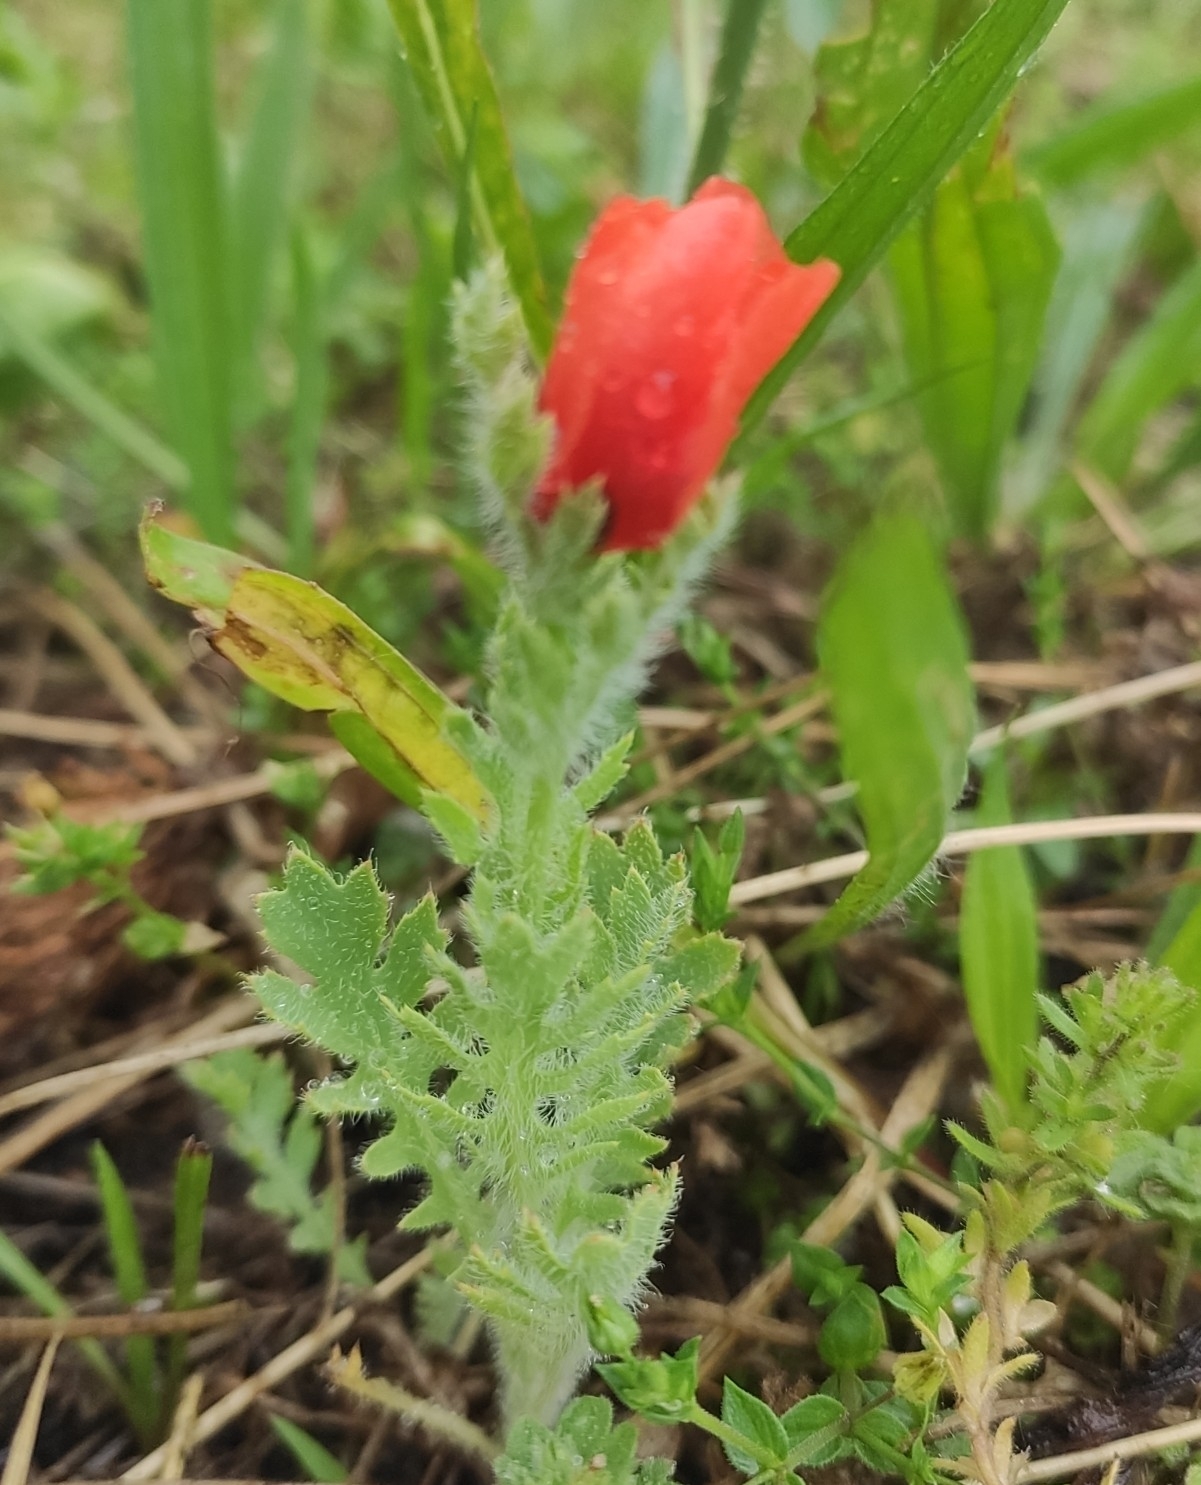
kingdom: Plantae
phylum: Tracheophyta
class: Magnoliopsida
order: Ranunculales
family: Papaveraceae
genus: Glaucium
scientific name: Glaucium corniculatum
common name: Red horned-poppy
